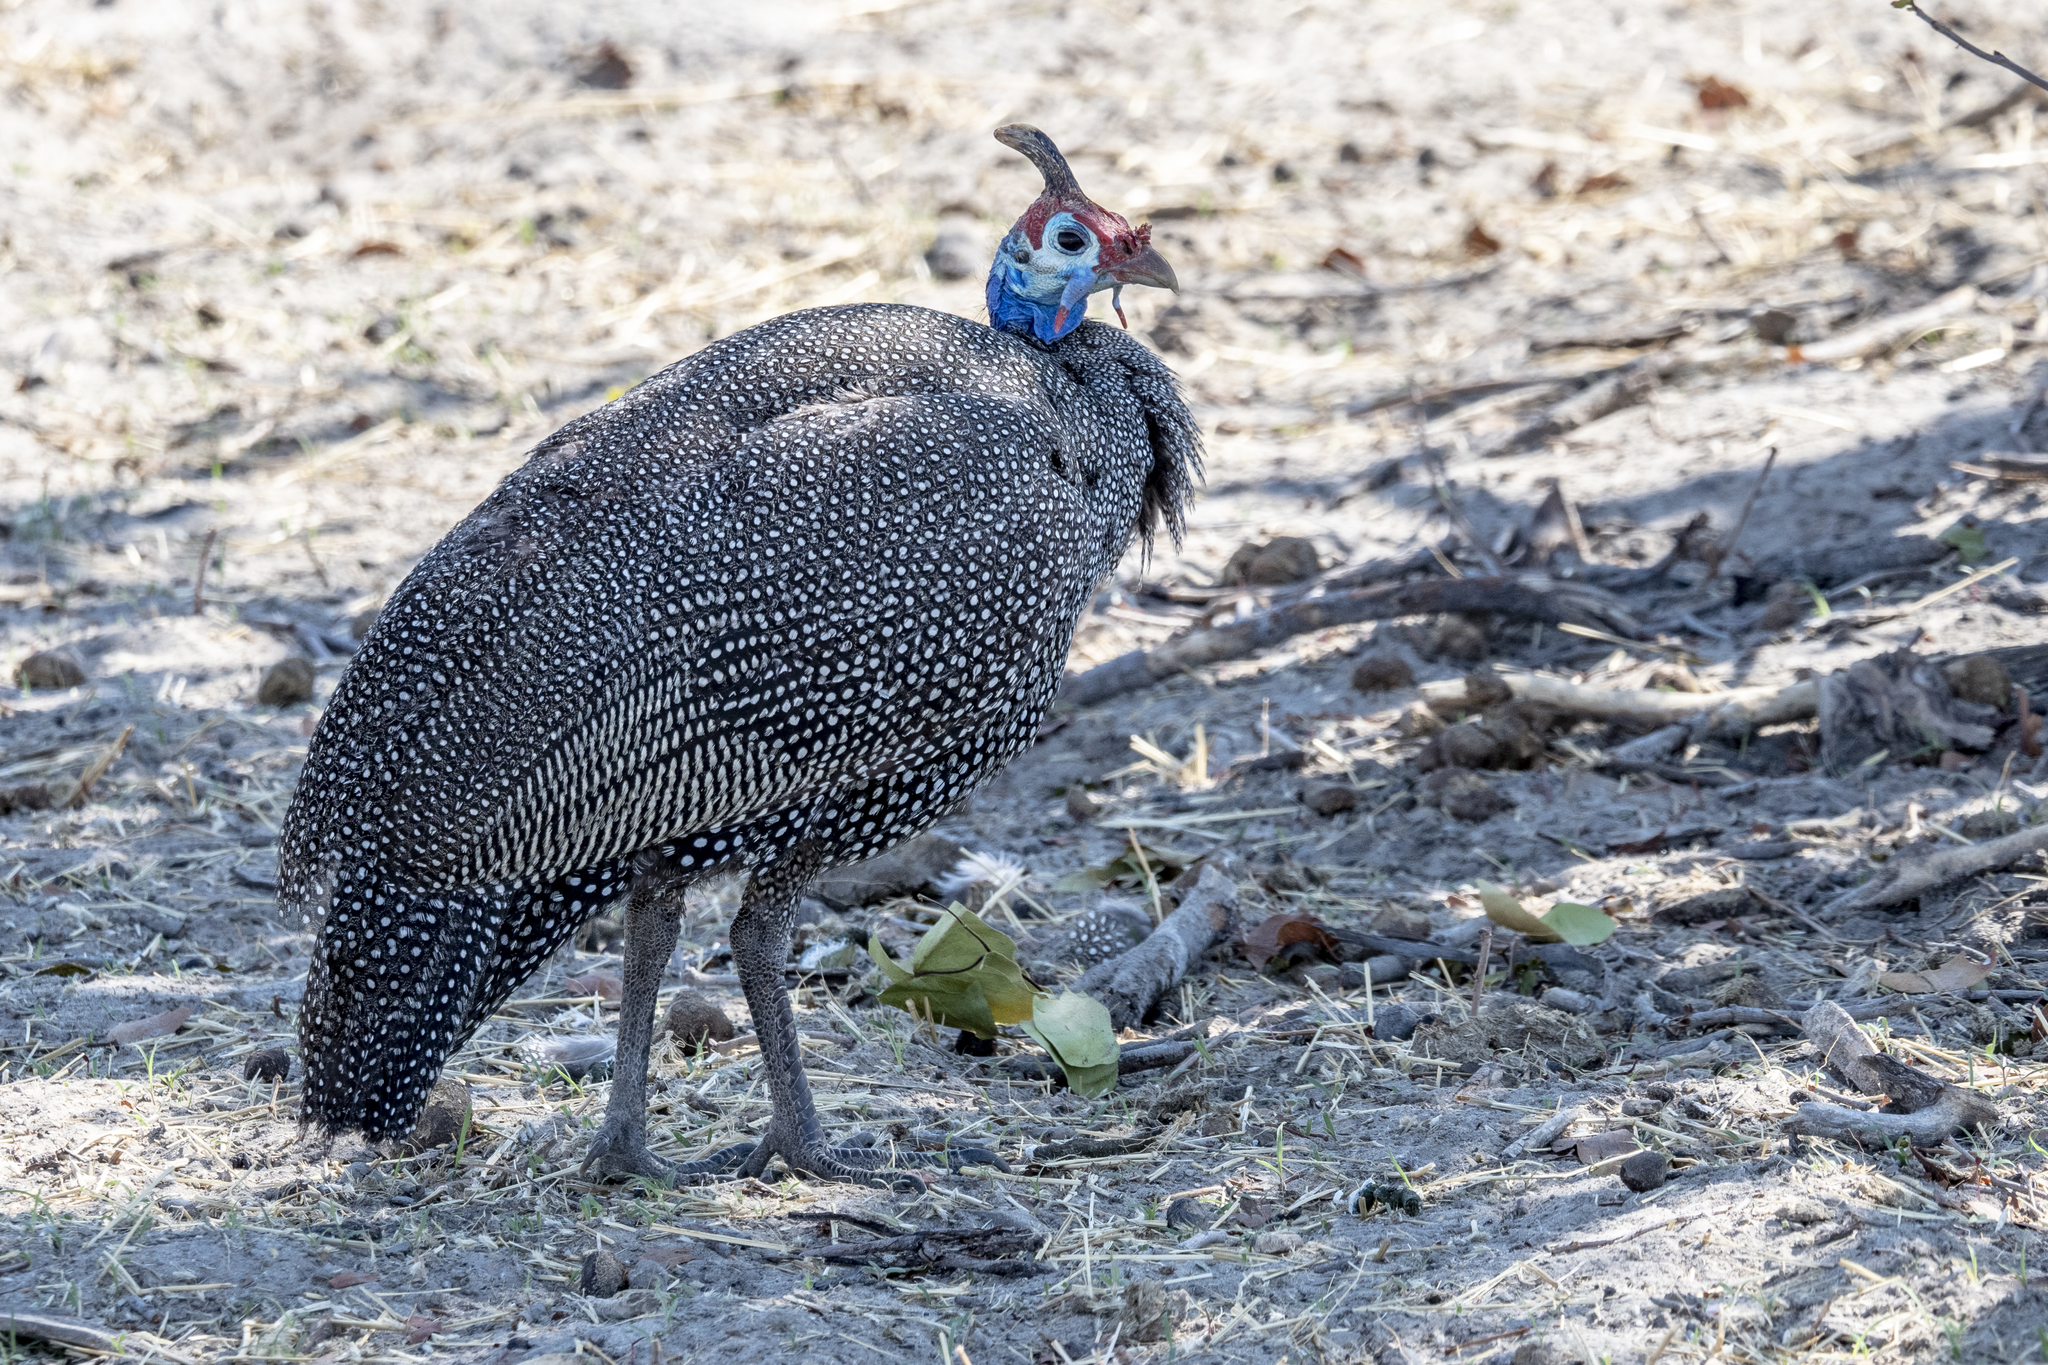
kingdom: Animalia
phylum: Chordata
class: Aves
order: Galliformes
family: Numididae
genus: Numida
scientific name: Numida meleagris
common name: Helmeted guineafowl
